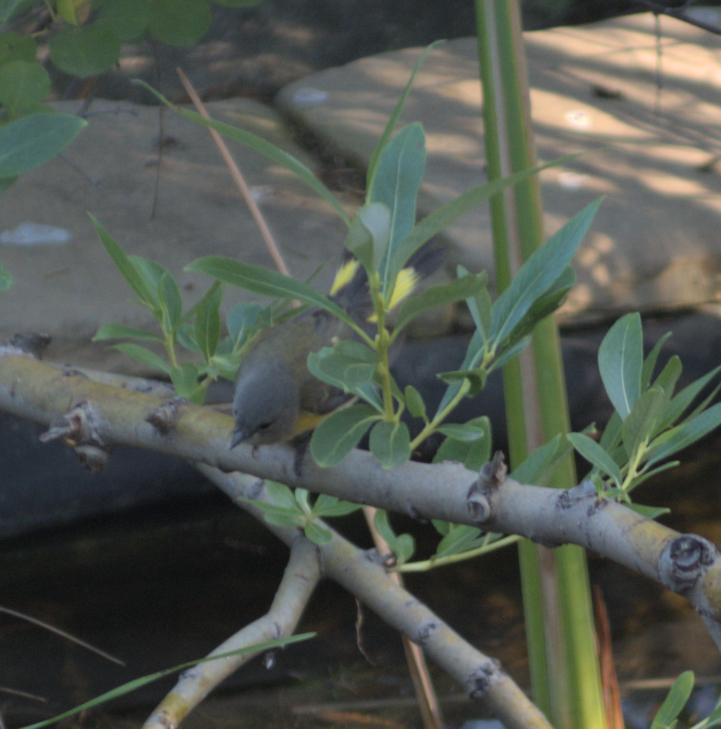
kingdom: Animalia
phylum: Chordata
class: Aves
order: Passeriformes
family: Parulidae
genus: Setophaga
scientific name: Setophaga ruticilla
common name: American redstart
